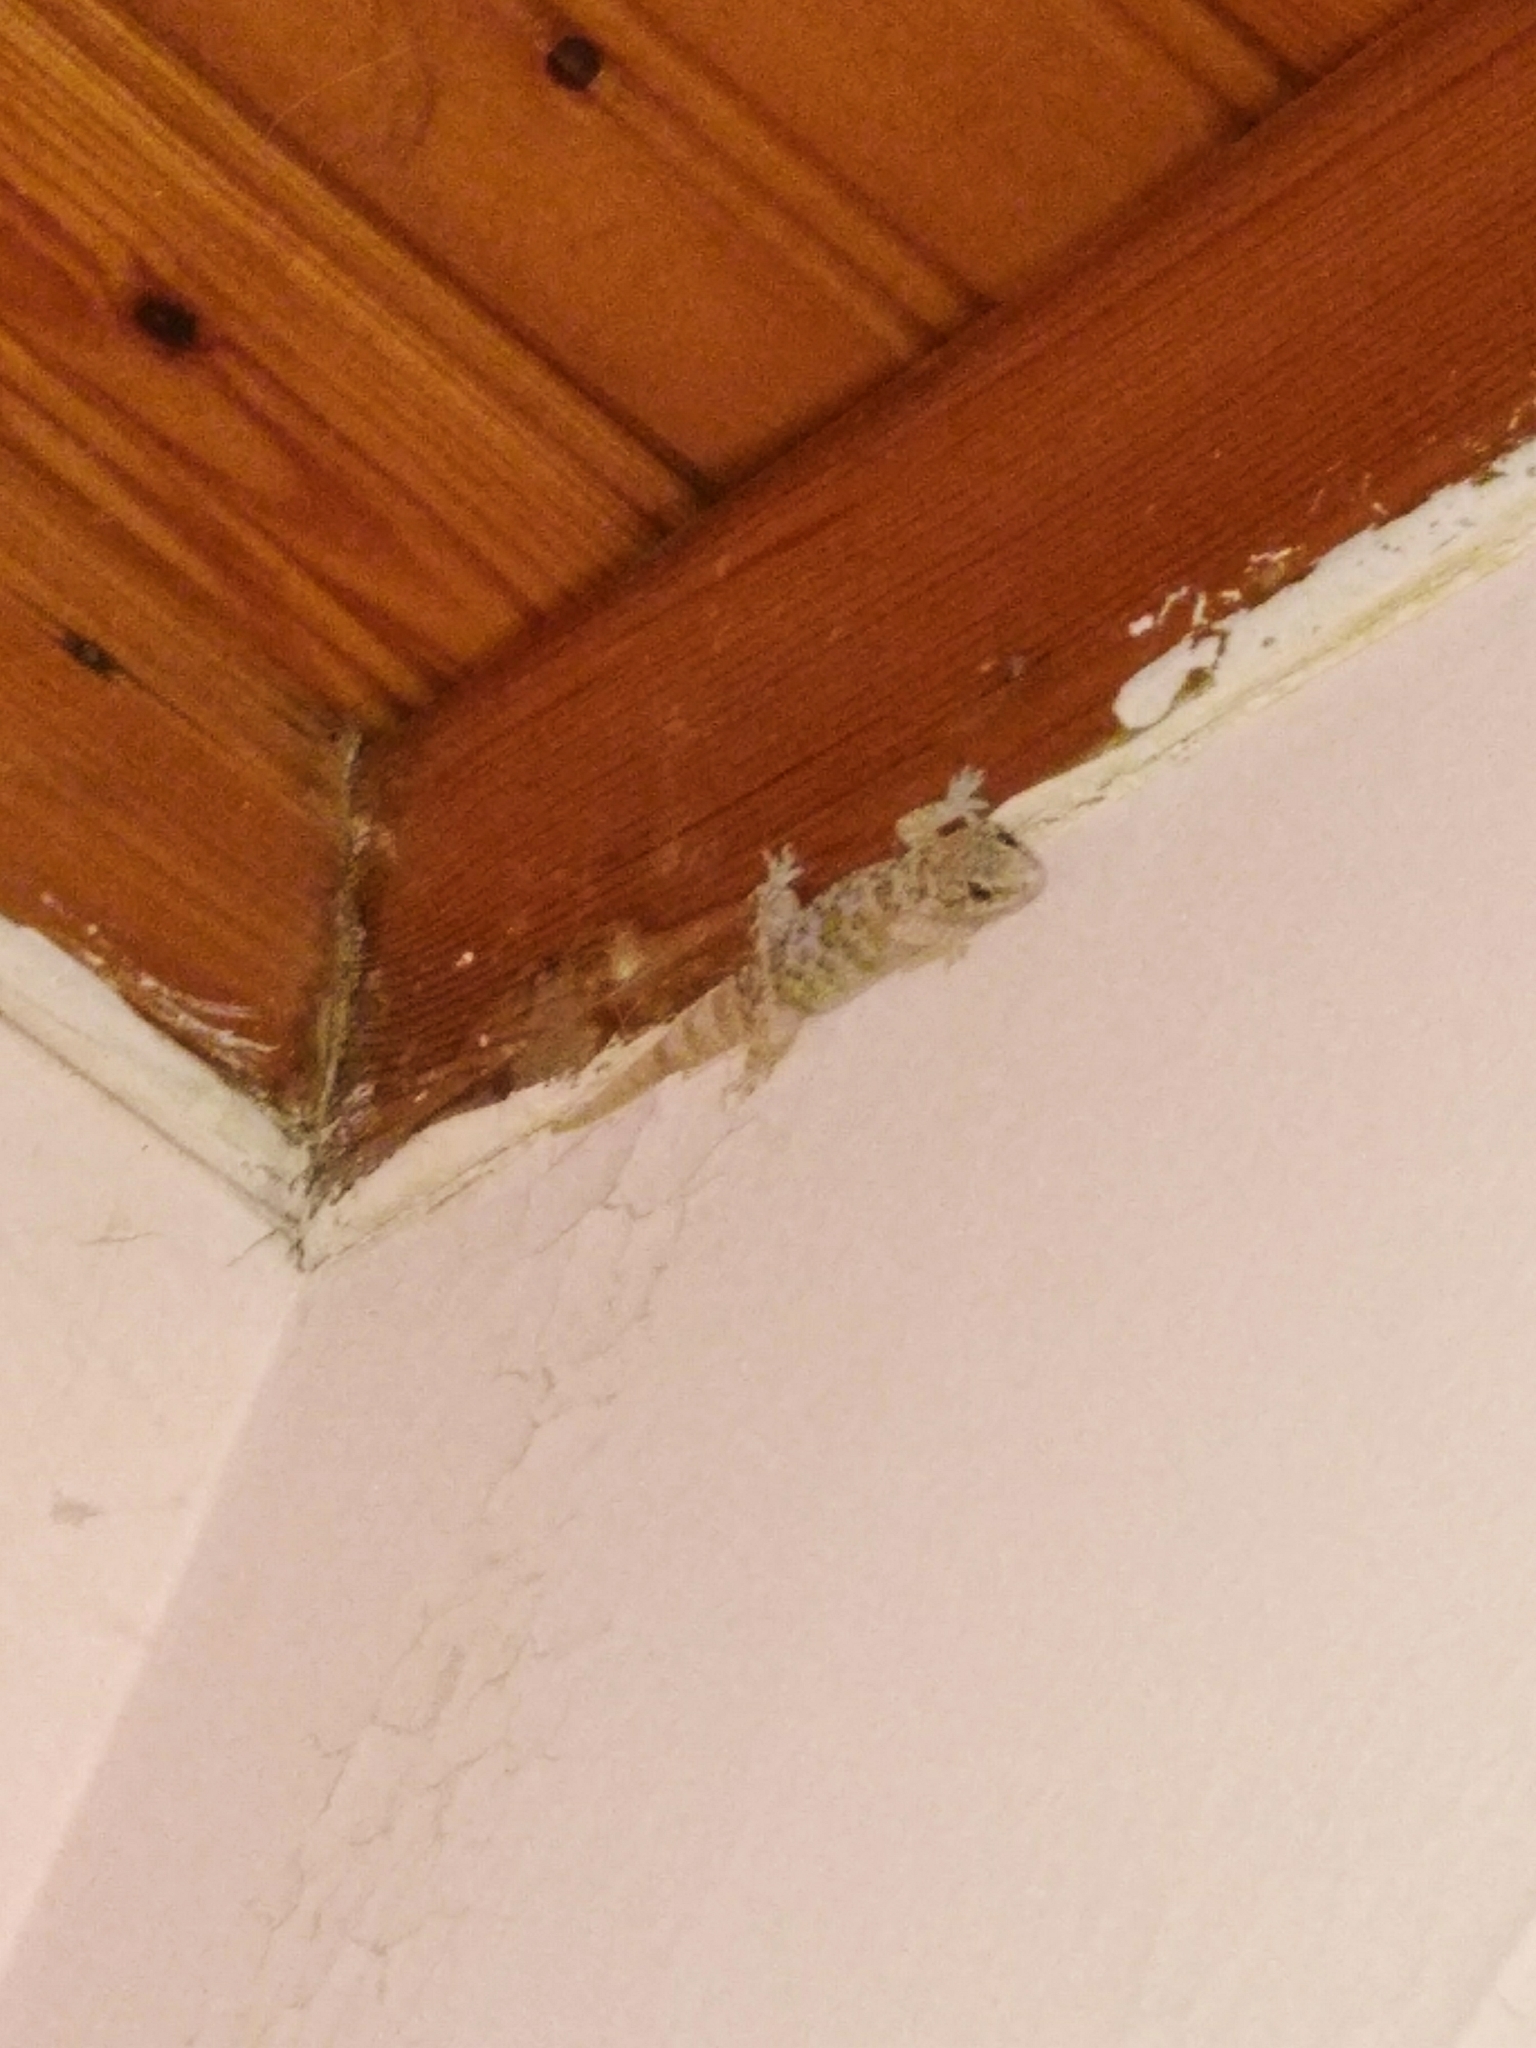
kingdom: Animalia
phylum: Chordata
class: Squamata
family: Gekkonidae
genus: Hemidactylus
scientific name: Hemidactylus turcicus
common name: Turkish gecko
